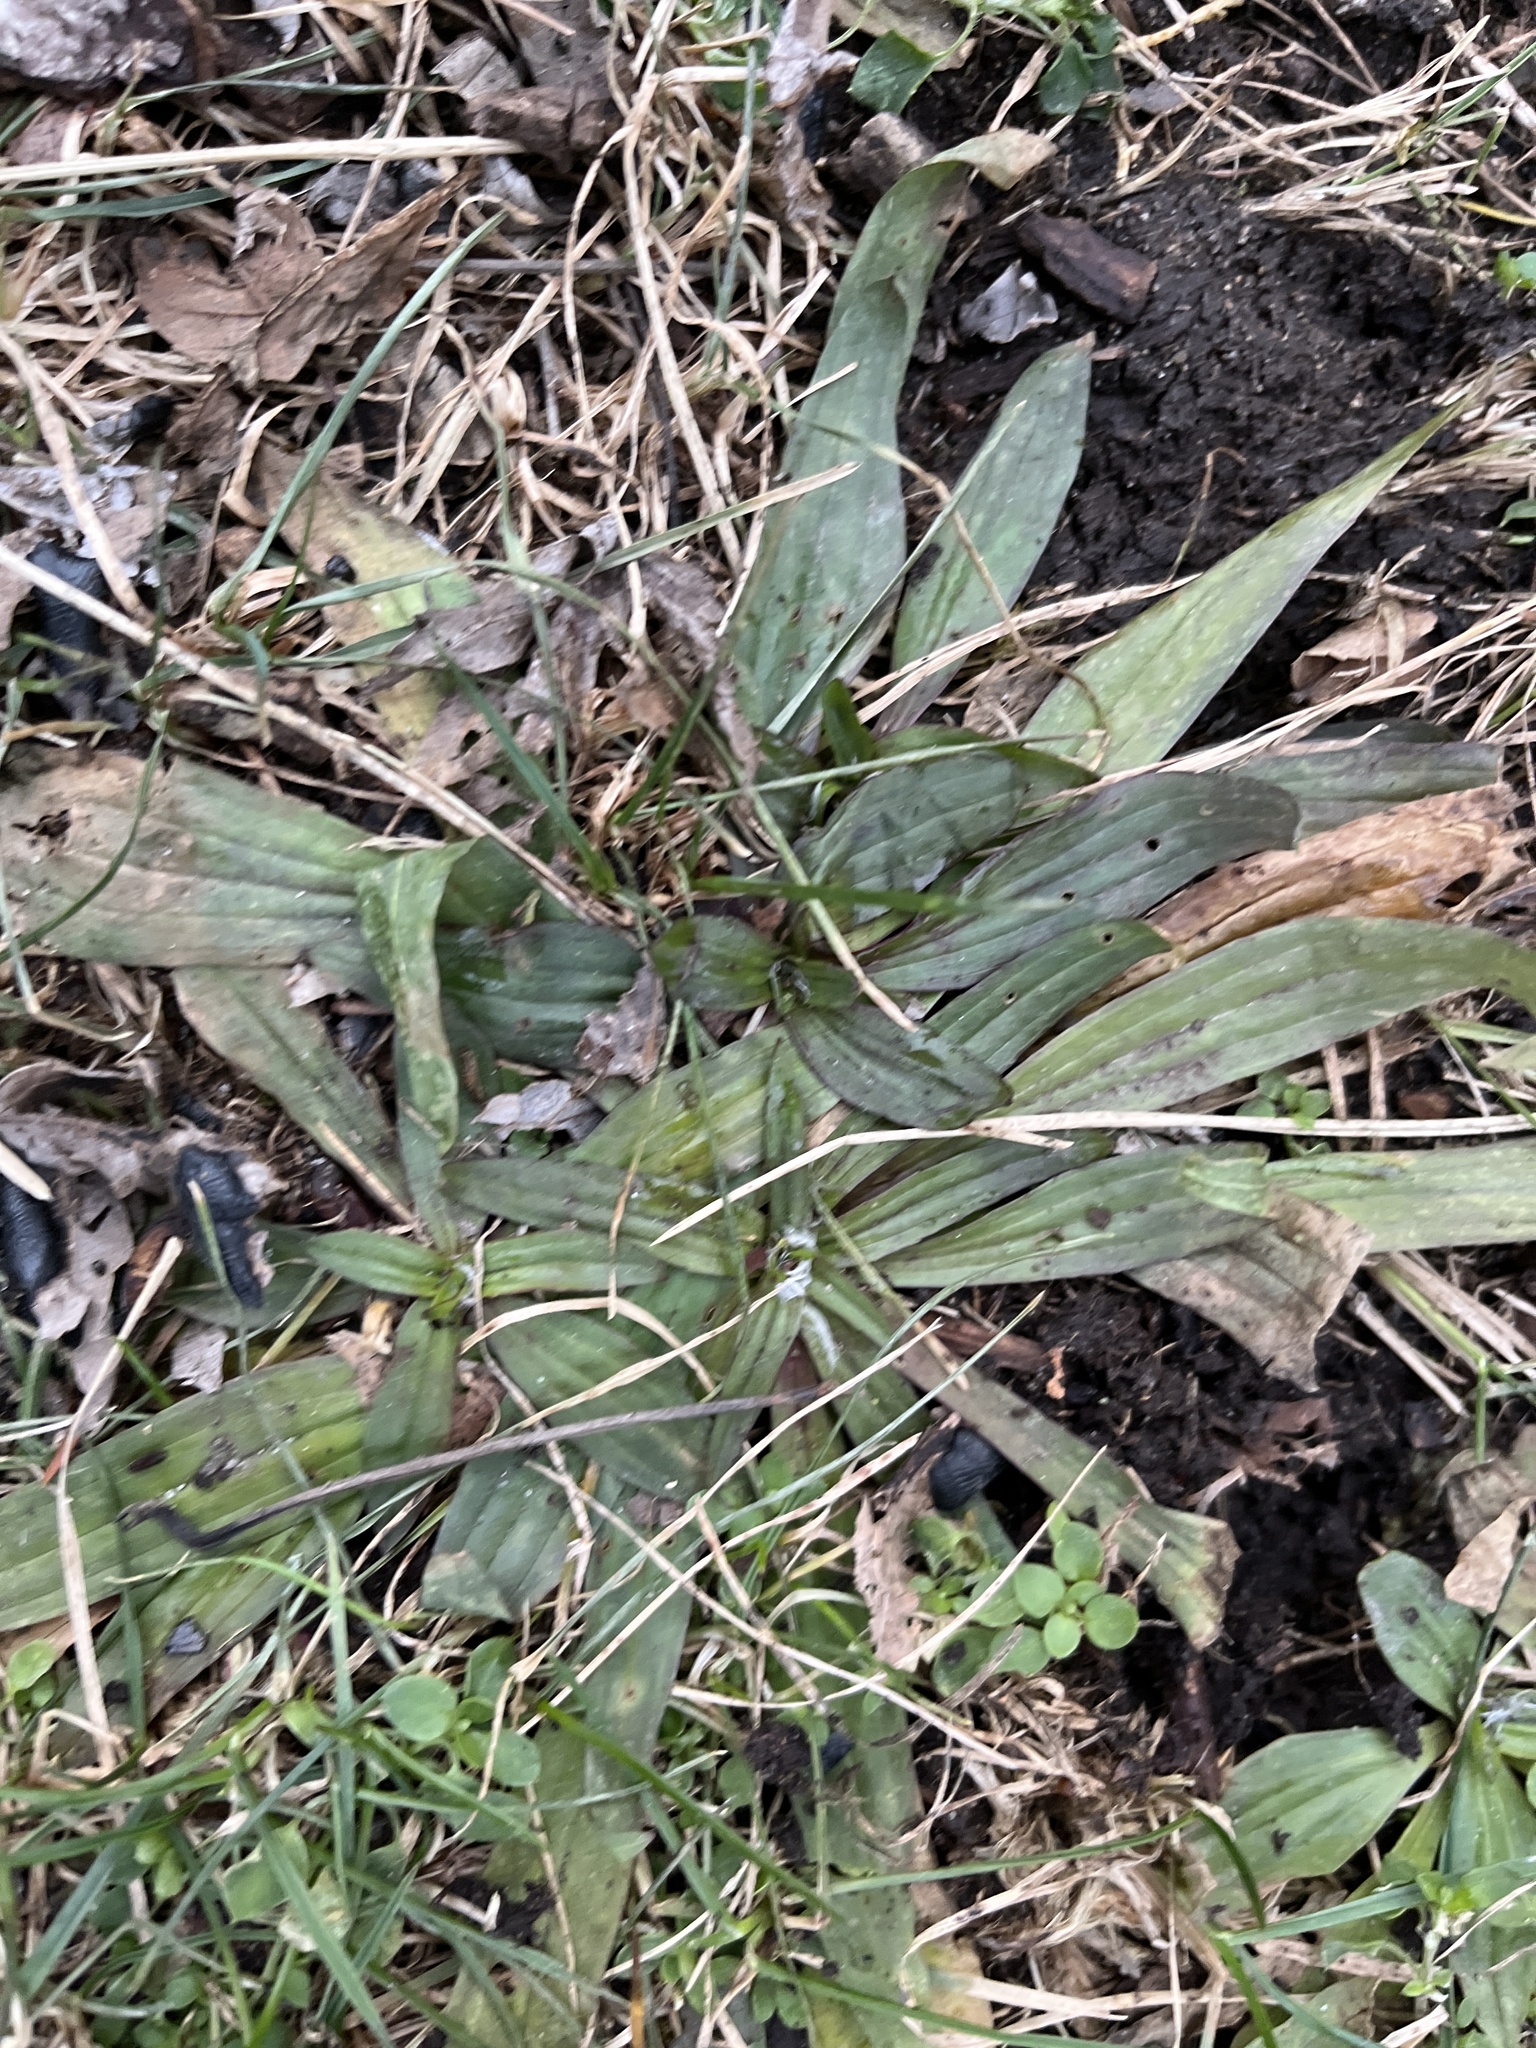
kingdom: Plantae
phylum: Tracheophyta
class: Magnoliopsida
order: Lamiales
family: Plantaginaceae
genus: Plantago
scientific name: Plantago lanceolata
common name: Ribwort plantain
